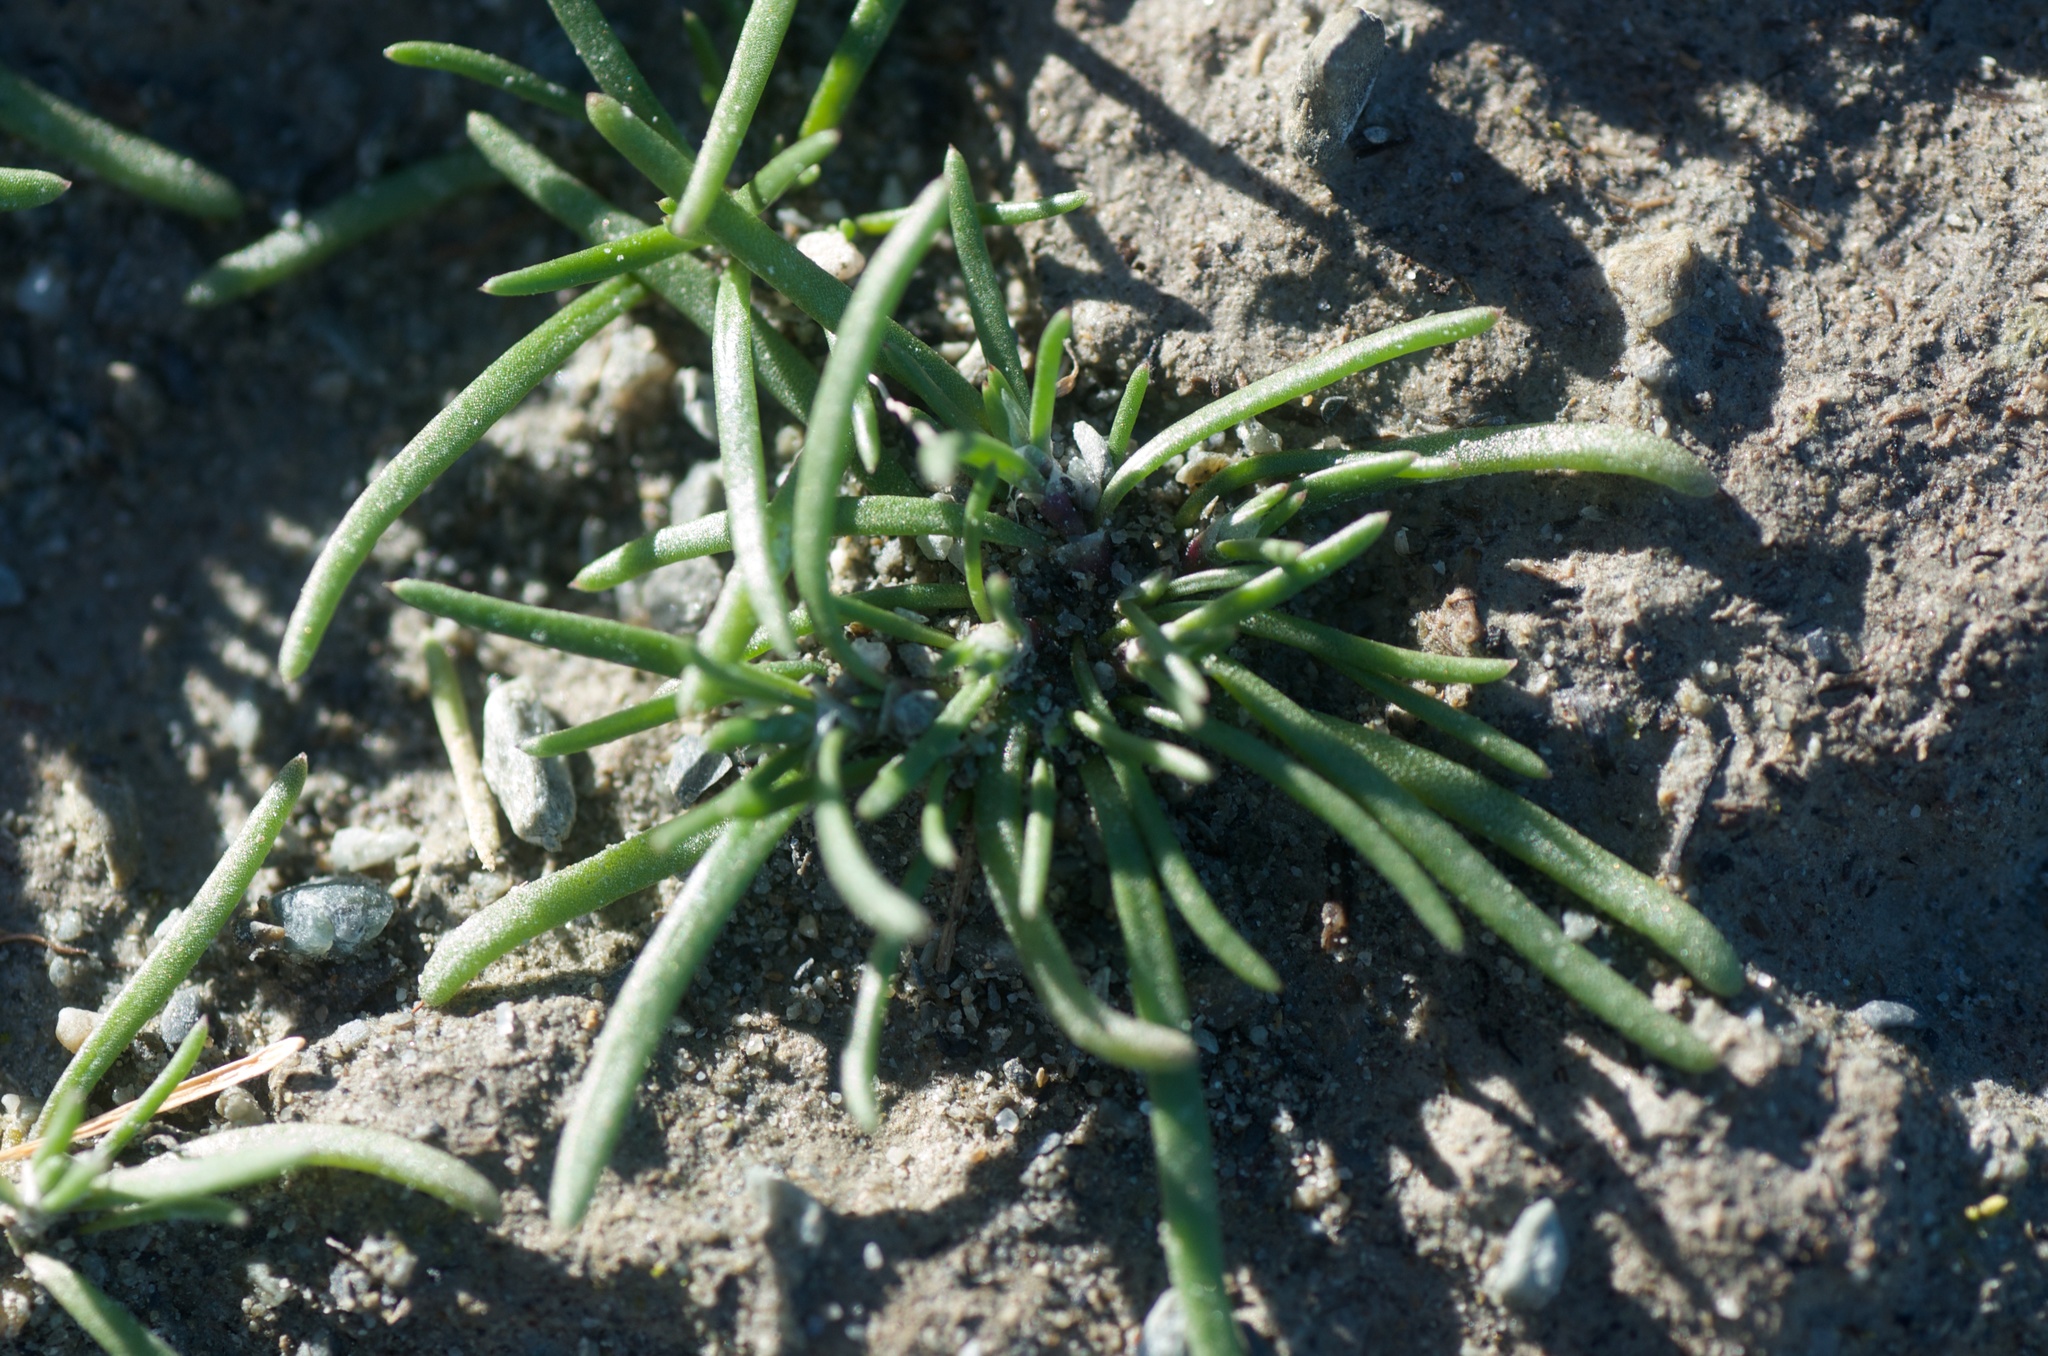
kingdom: Plantae
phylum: Tracheophyta
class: Magnoliopsida
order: Lamiales
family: Scrophulariaceae
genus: Limosella
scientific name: Limosella australis
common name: Welsh mudwort
